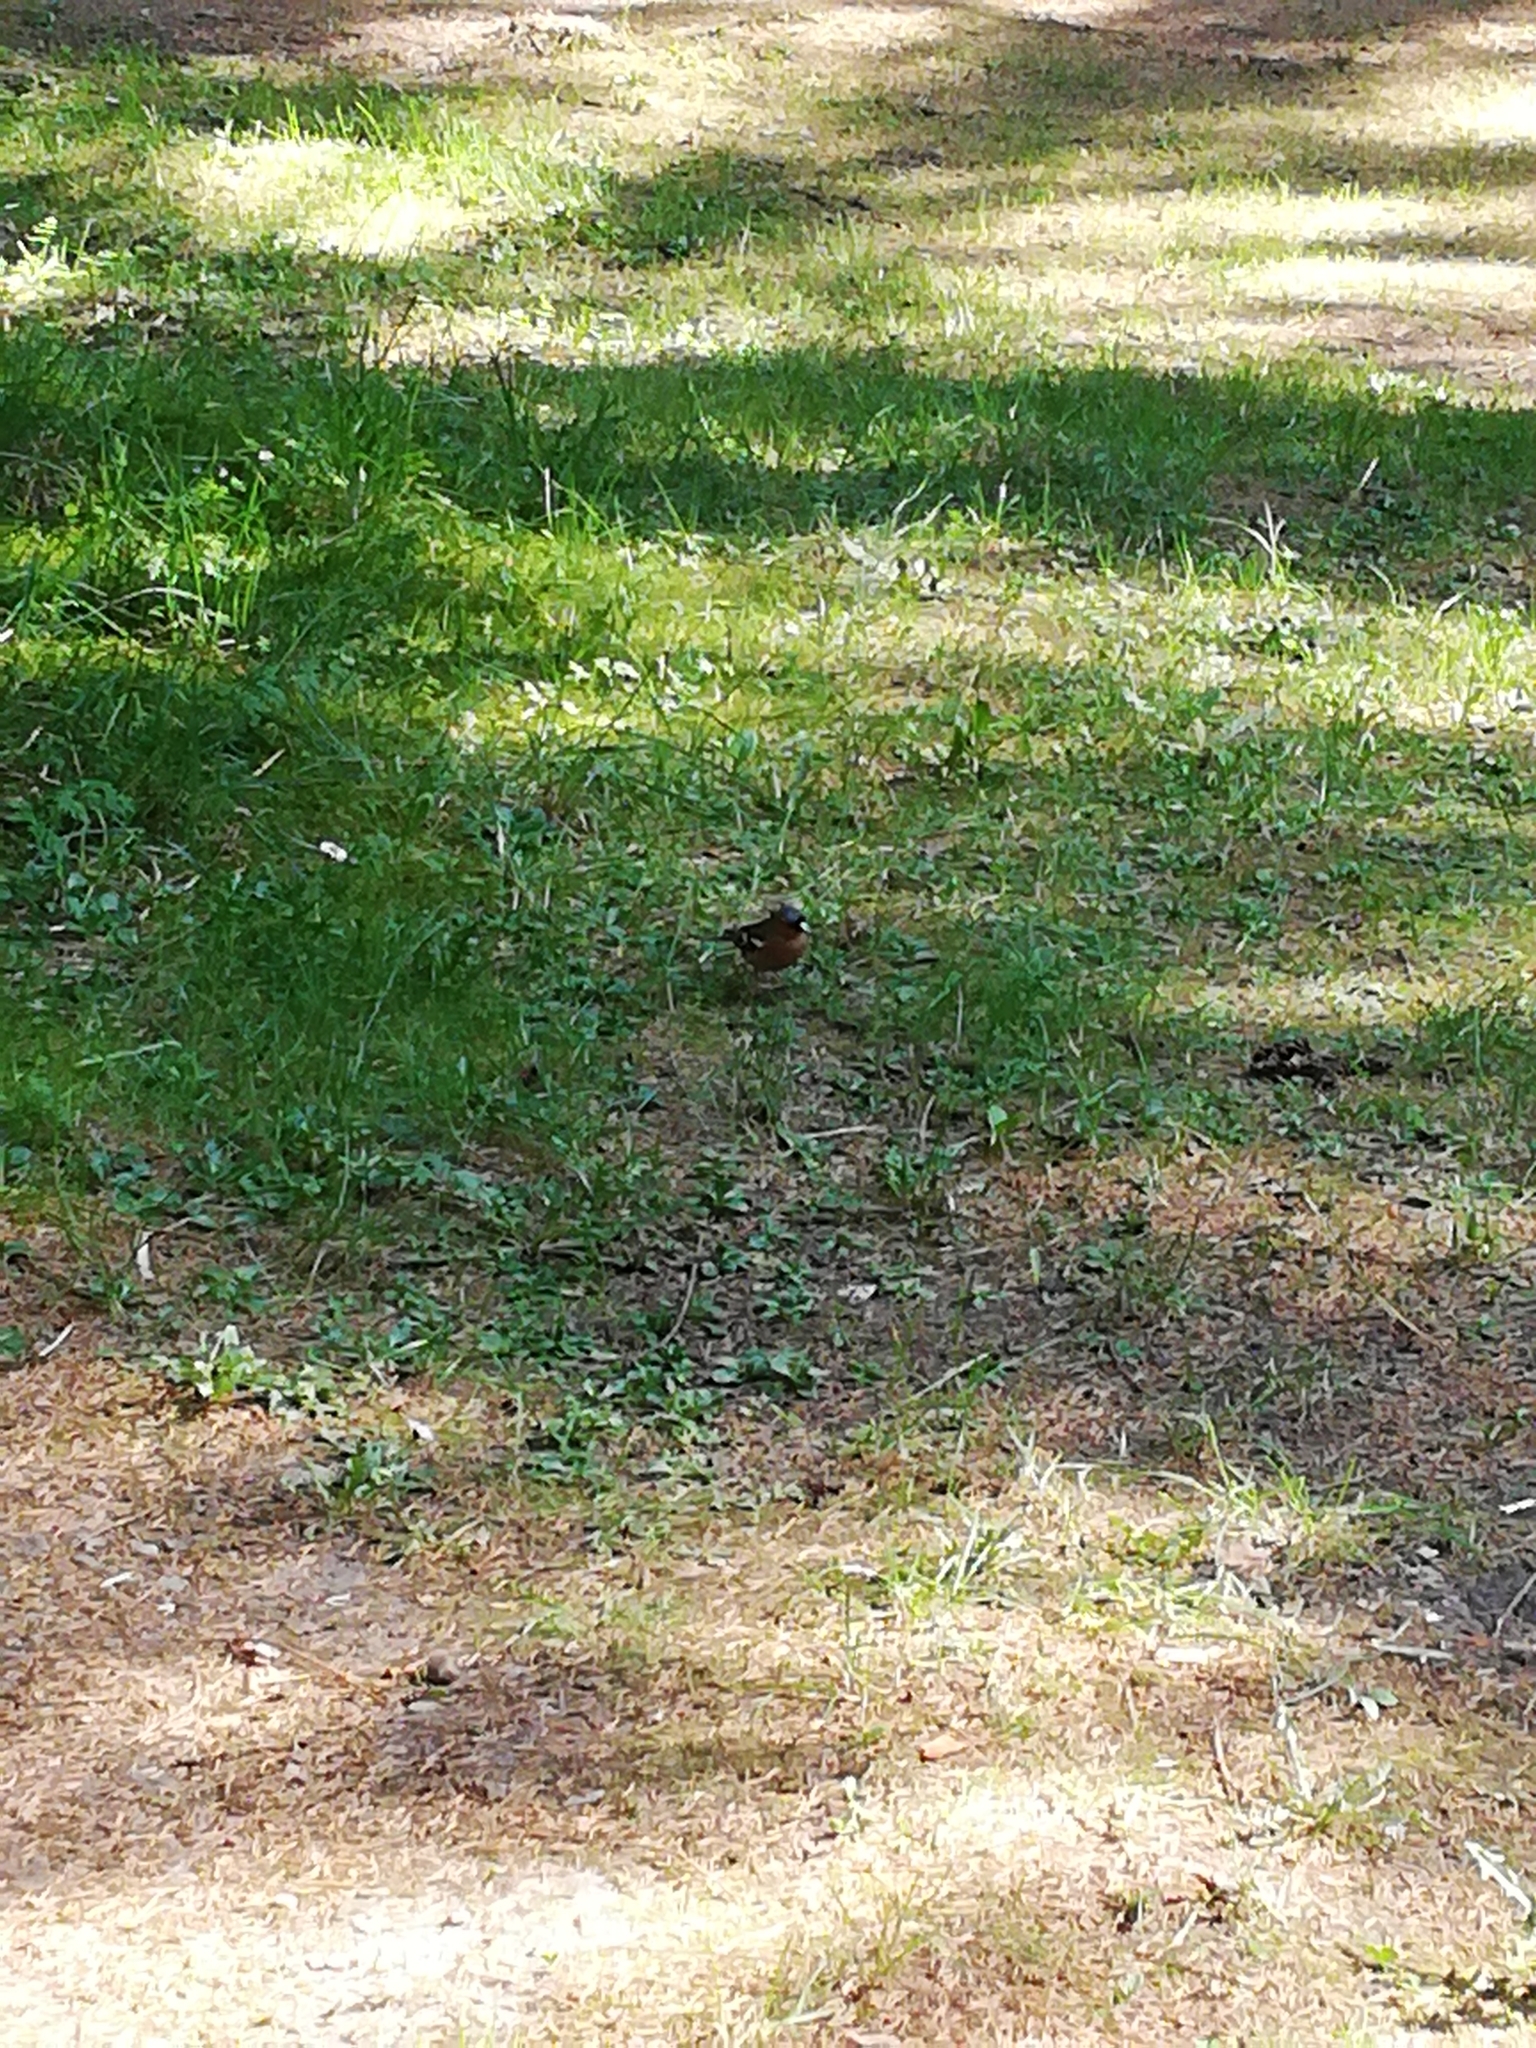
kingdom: Animalia
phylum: Chordata
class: Aves
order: Passeriformes
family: Fringillidae
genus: Fringilla
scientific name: Fringilla coelebs
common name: Common chaffinch
